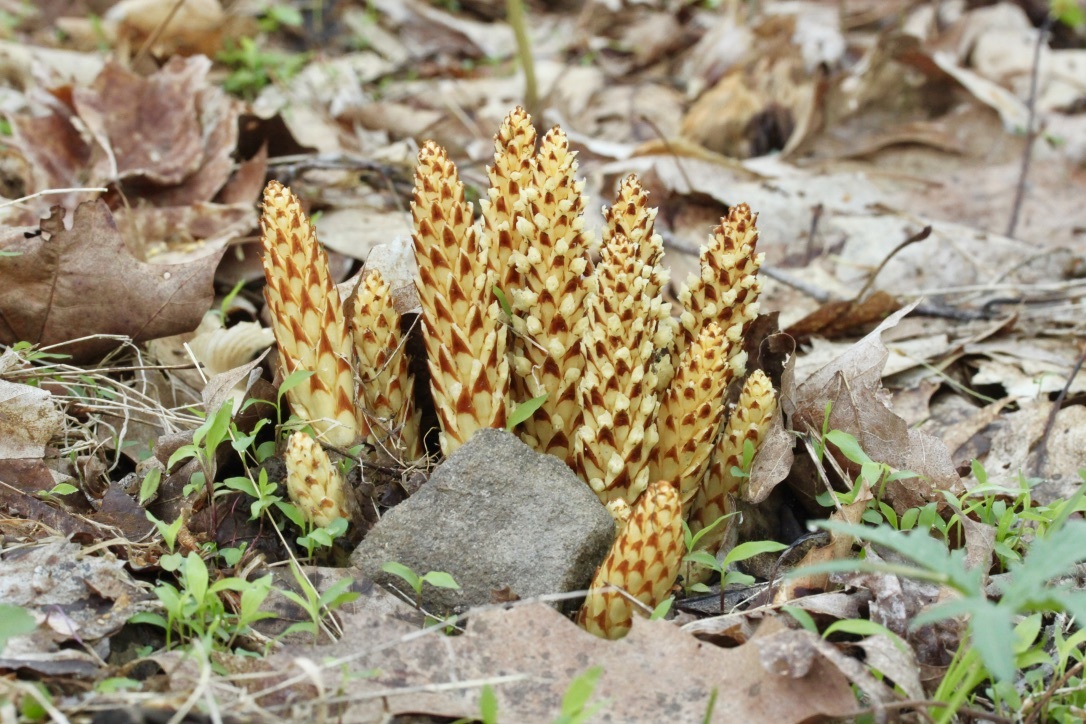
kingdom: Plantae
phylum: Tracheophyta
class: Magnoliopsida
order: Lamiales
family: Orobanchaceae
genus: Conopholis
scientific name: Conopholis americana
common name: American cancer-root
